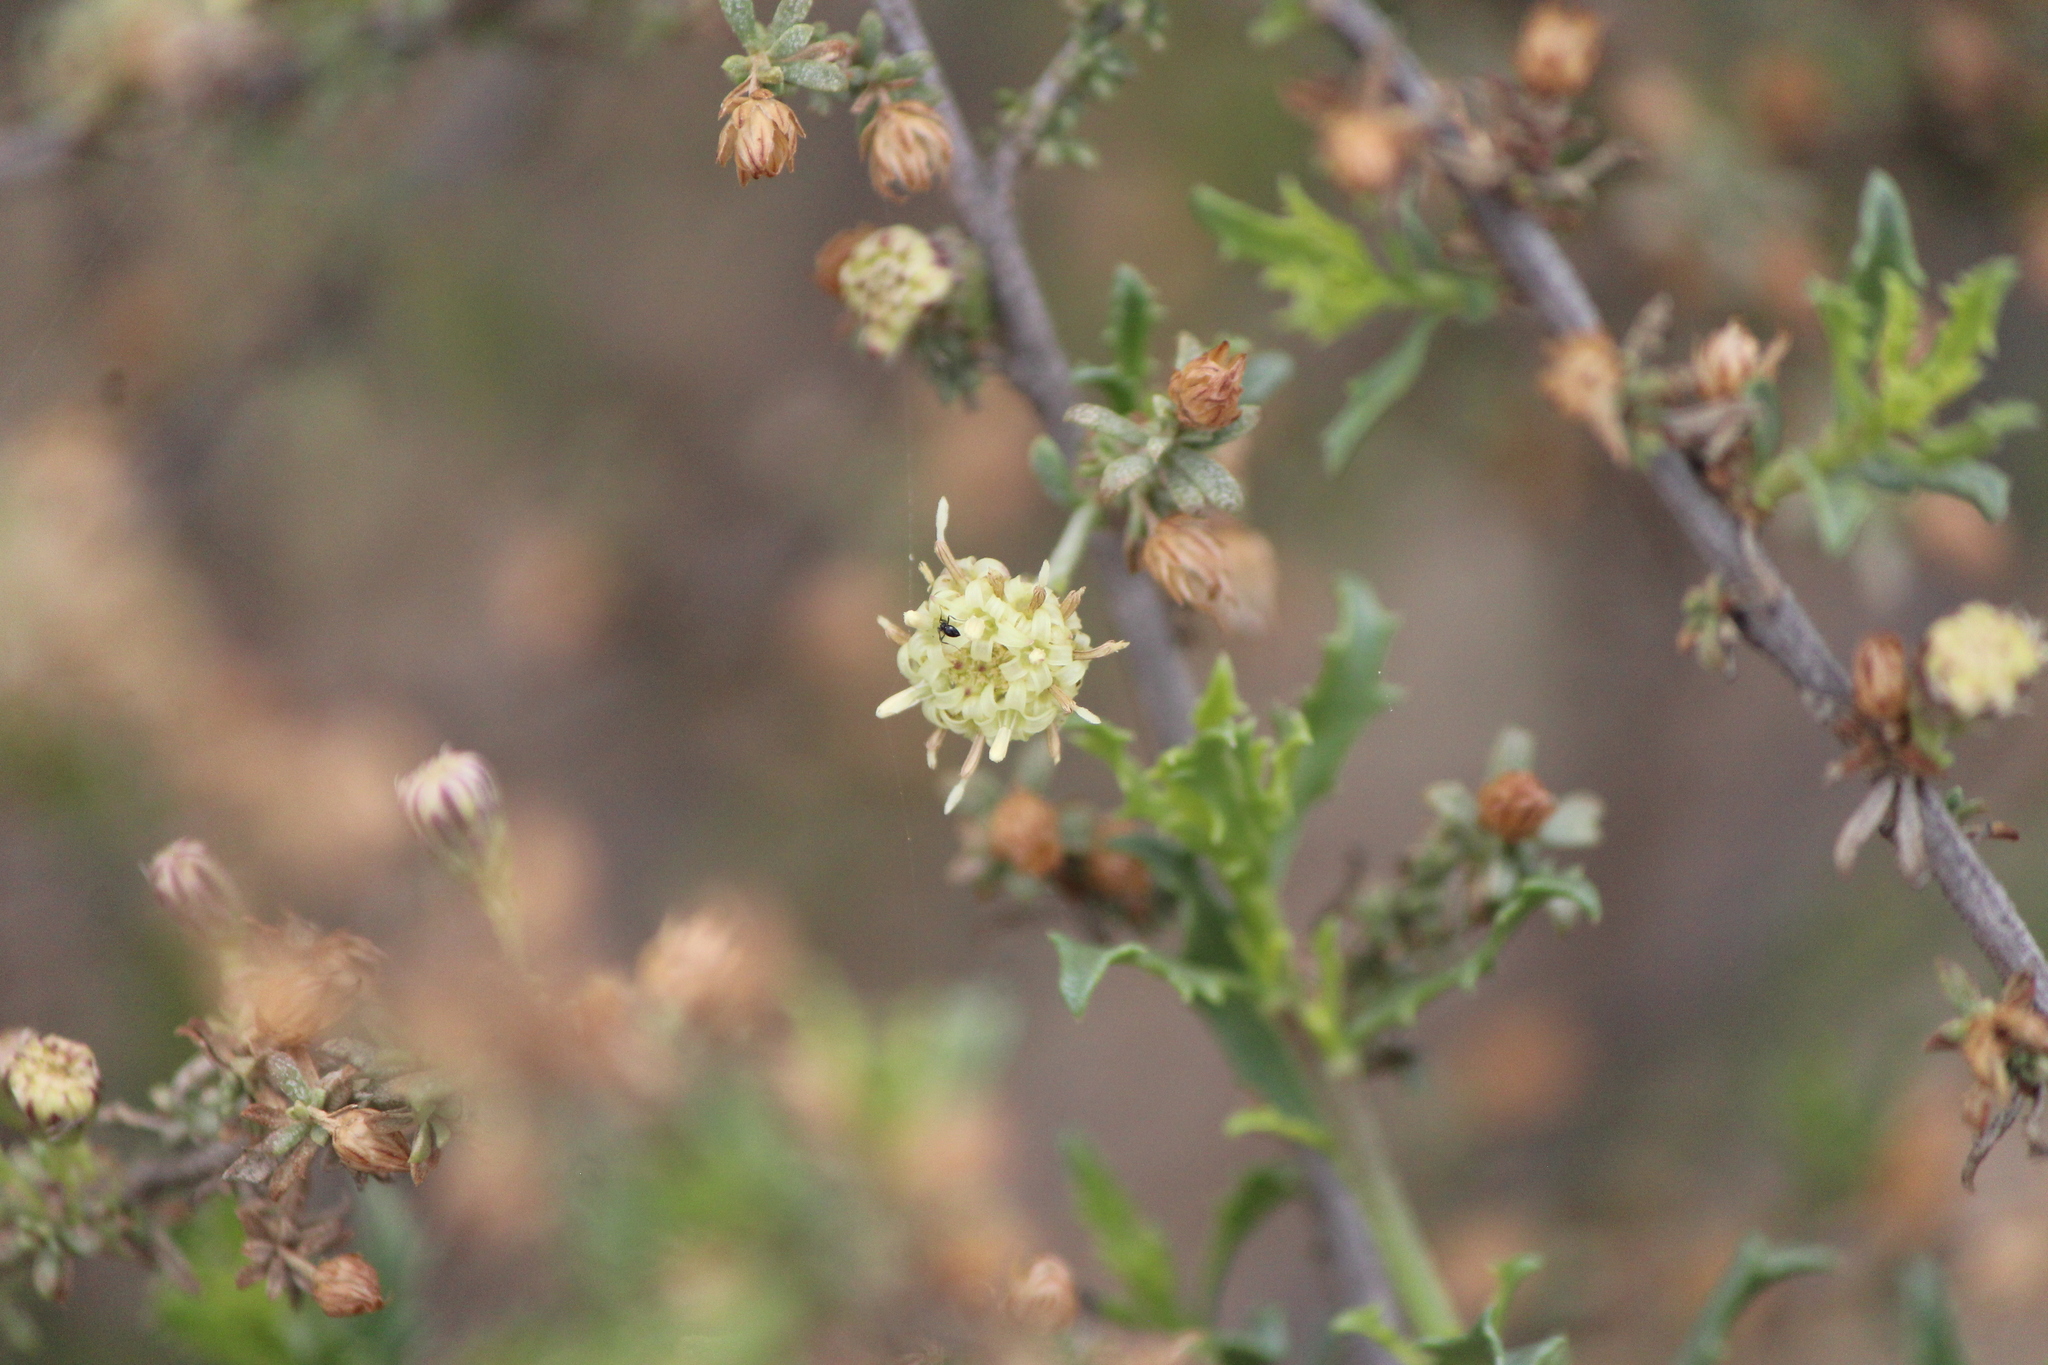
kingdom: Plantae
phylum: Tracheophyta
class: Magnoliopsida
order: Asterales
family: Asteraceae
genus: Baccharis
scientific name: Baccharis pteronioides
